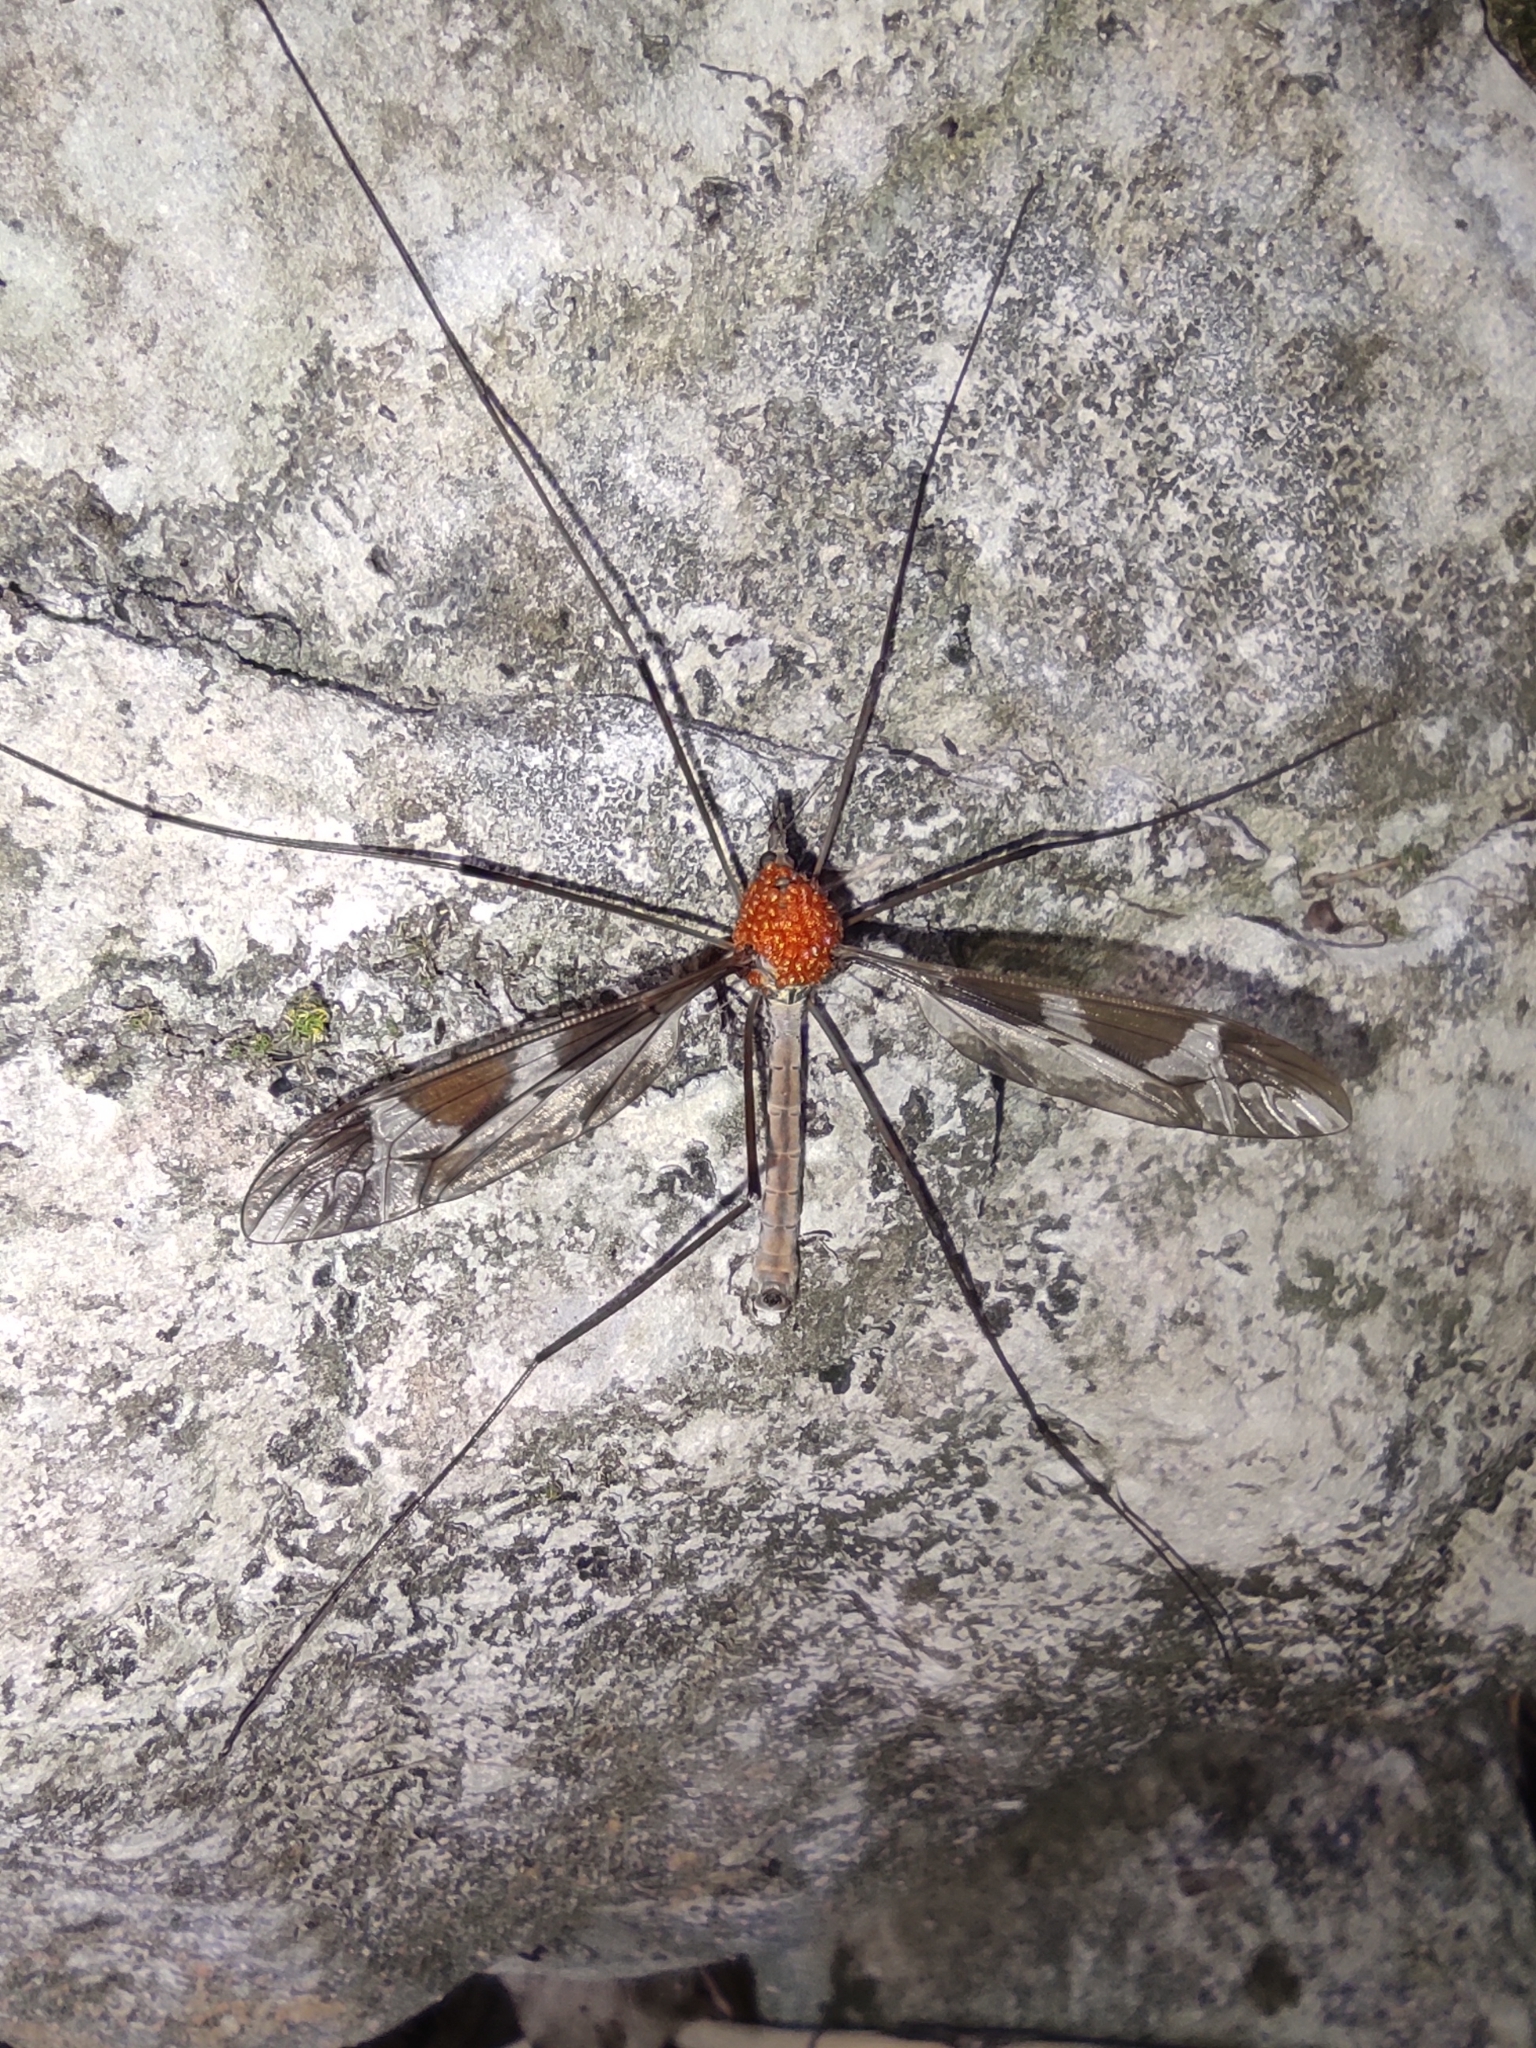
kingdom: Animalia
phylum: Arthropoda
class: Insecta
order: Diptera
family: Tipulidae
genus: Tipula
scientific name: Tipula maxima
